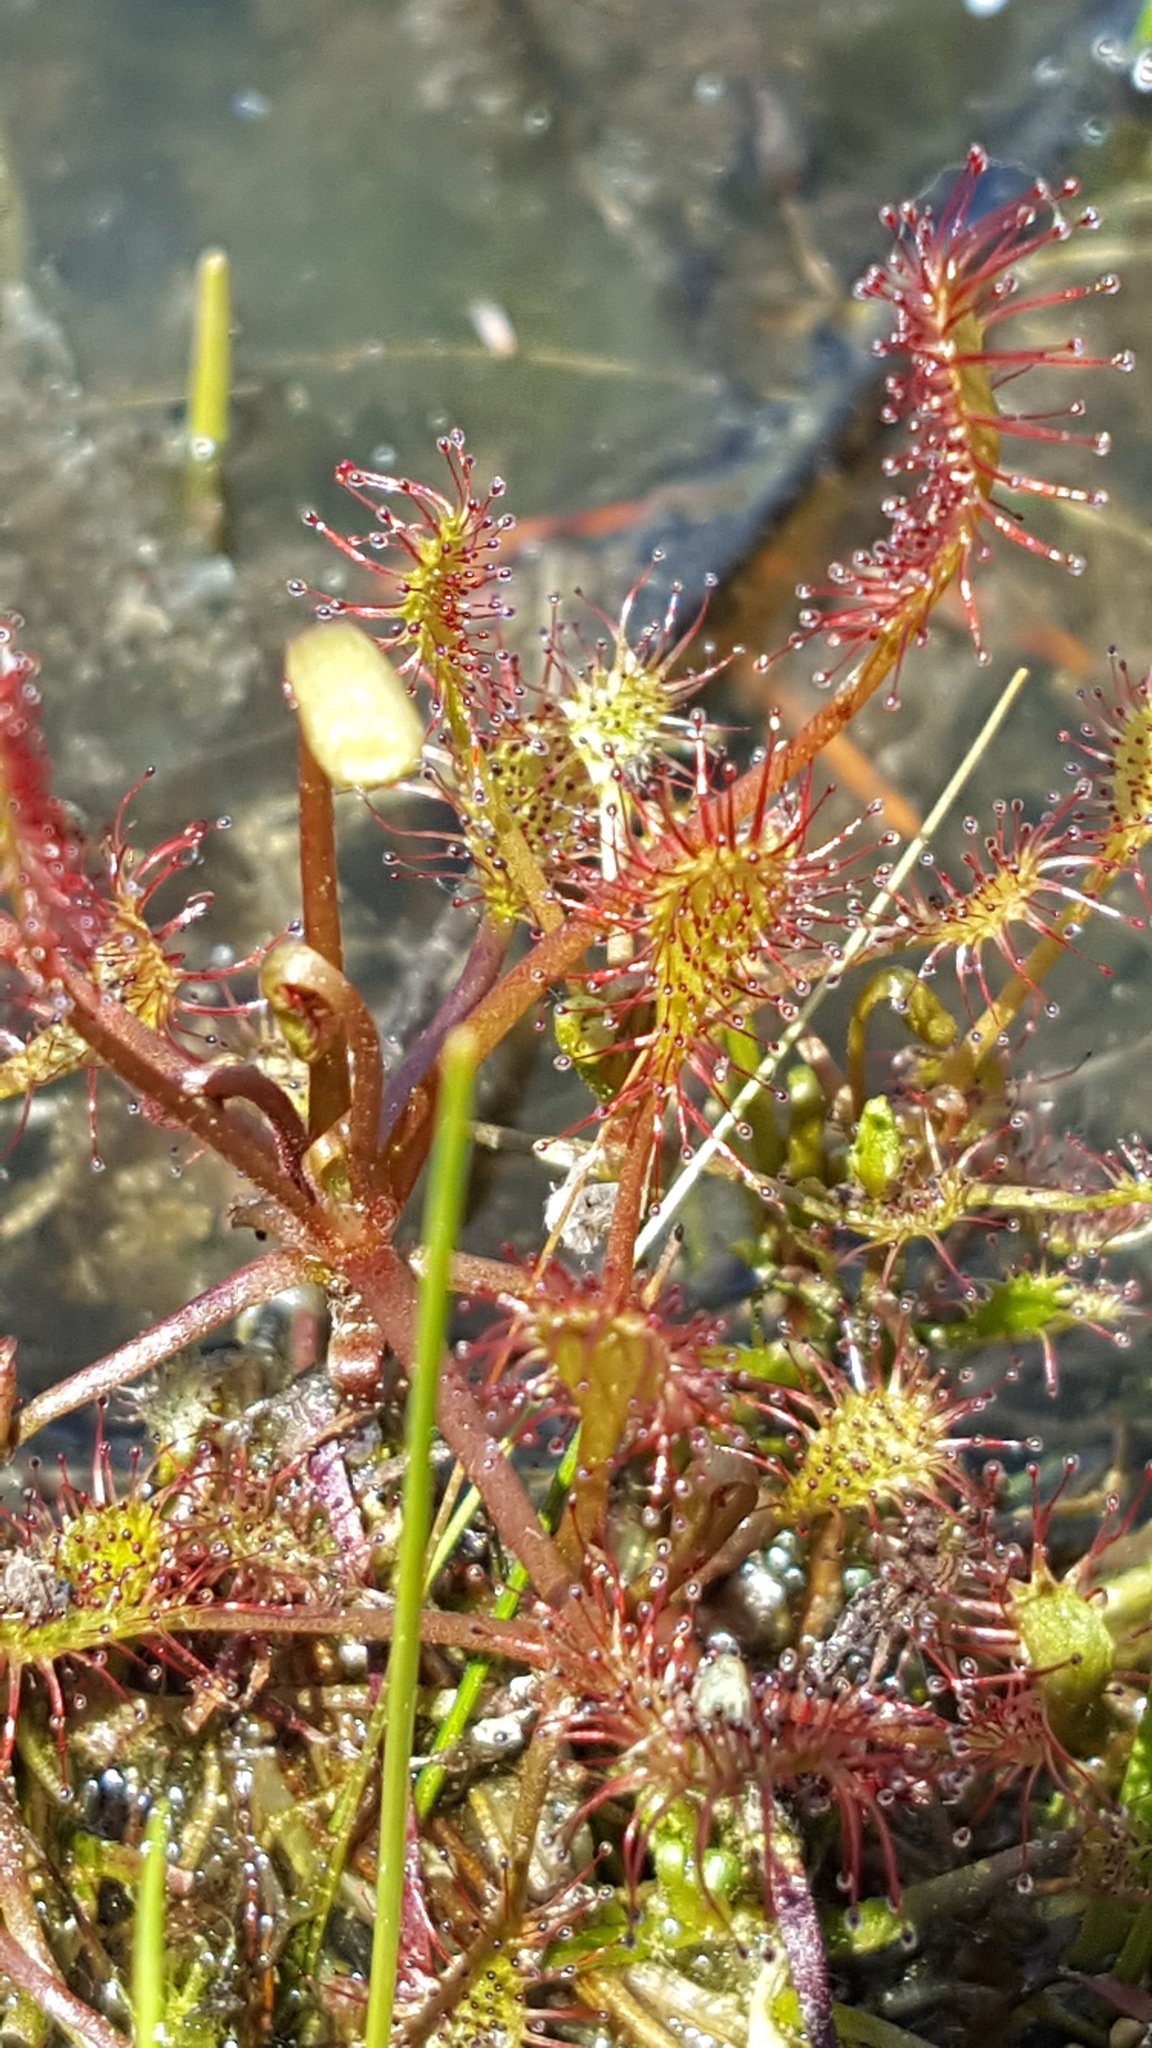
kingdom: Plantae
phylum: Tracheophyta
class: Magnoliopsida
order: Caryophyllales
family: Droseraceae
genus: Drosera
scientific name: Drosera intermedia
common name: Oblong-leaved sundew
